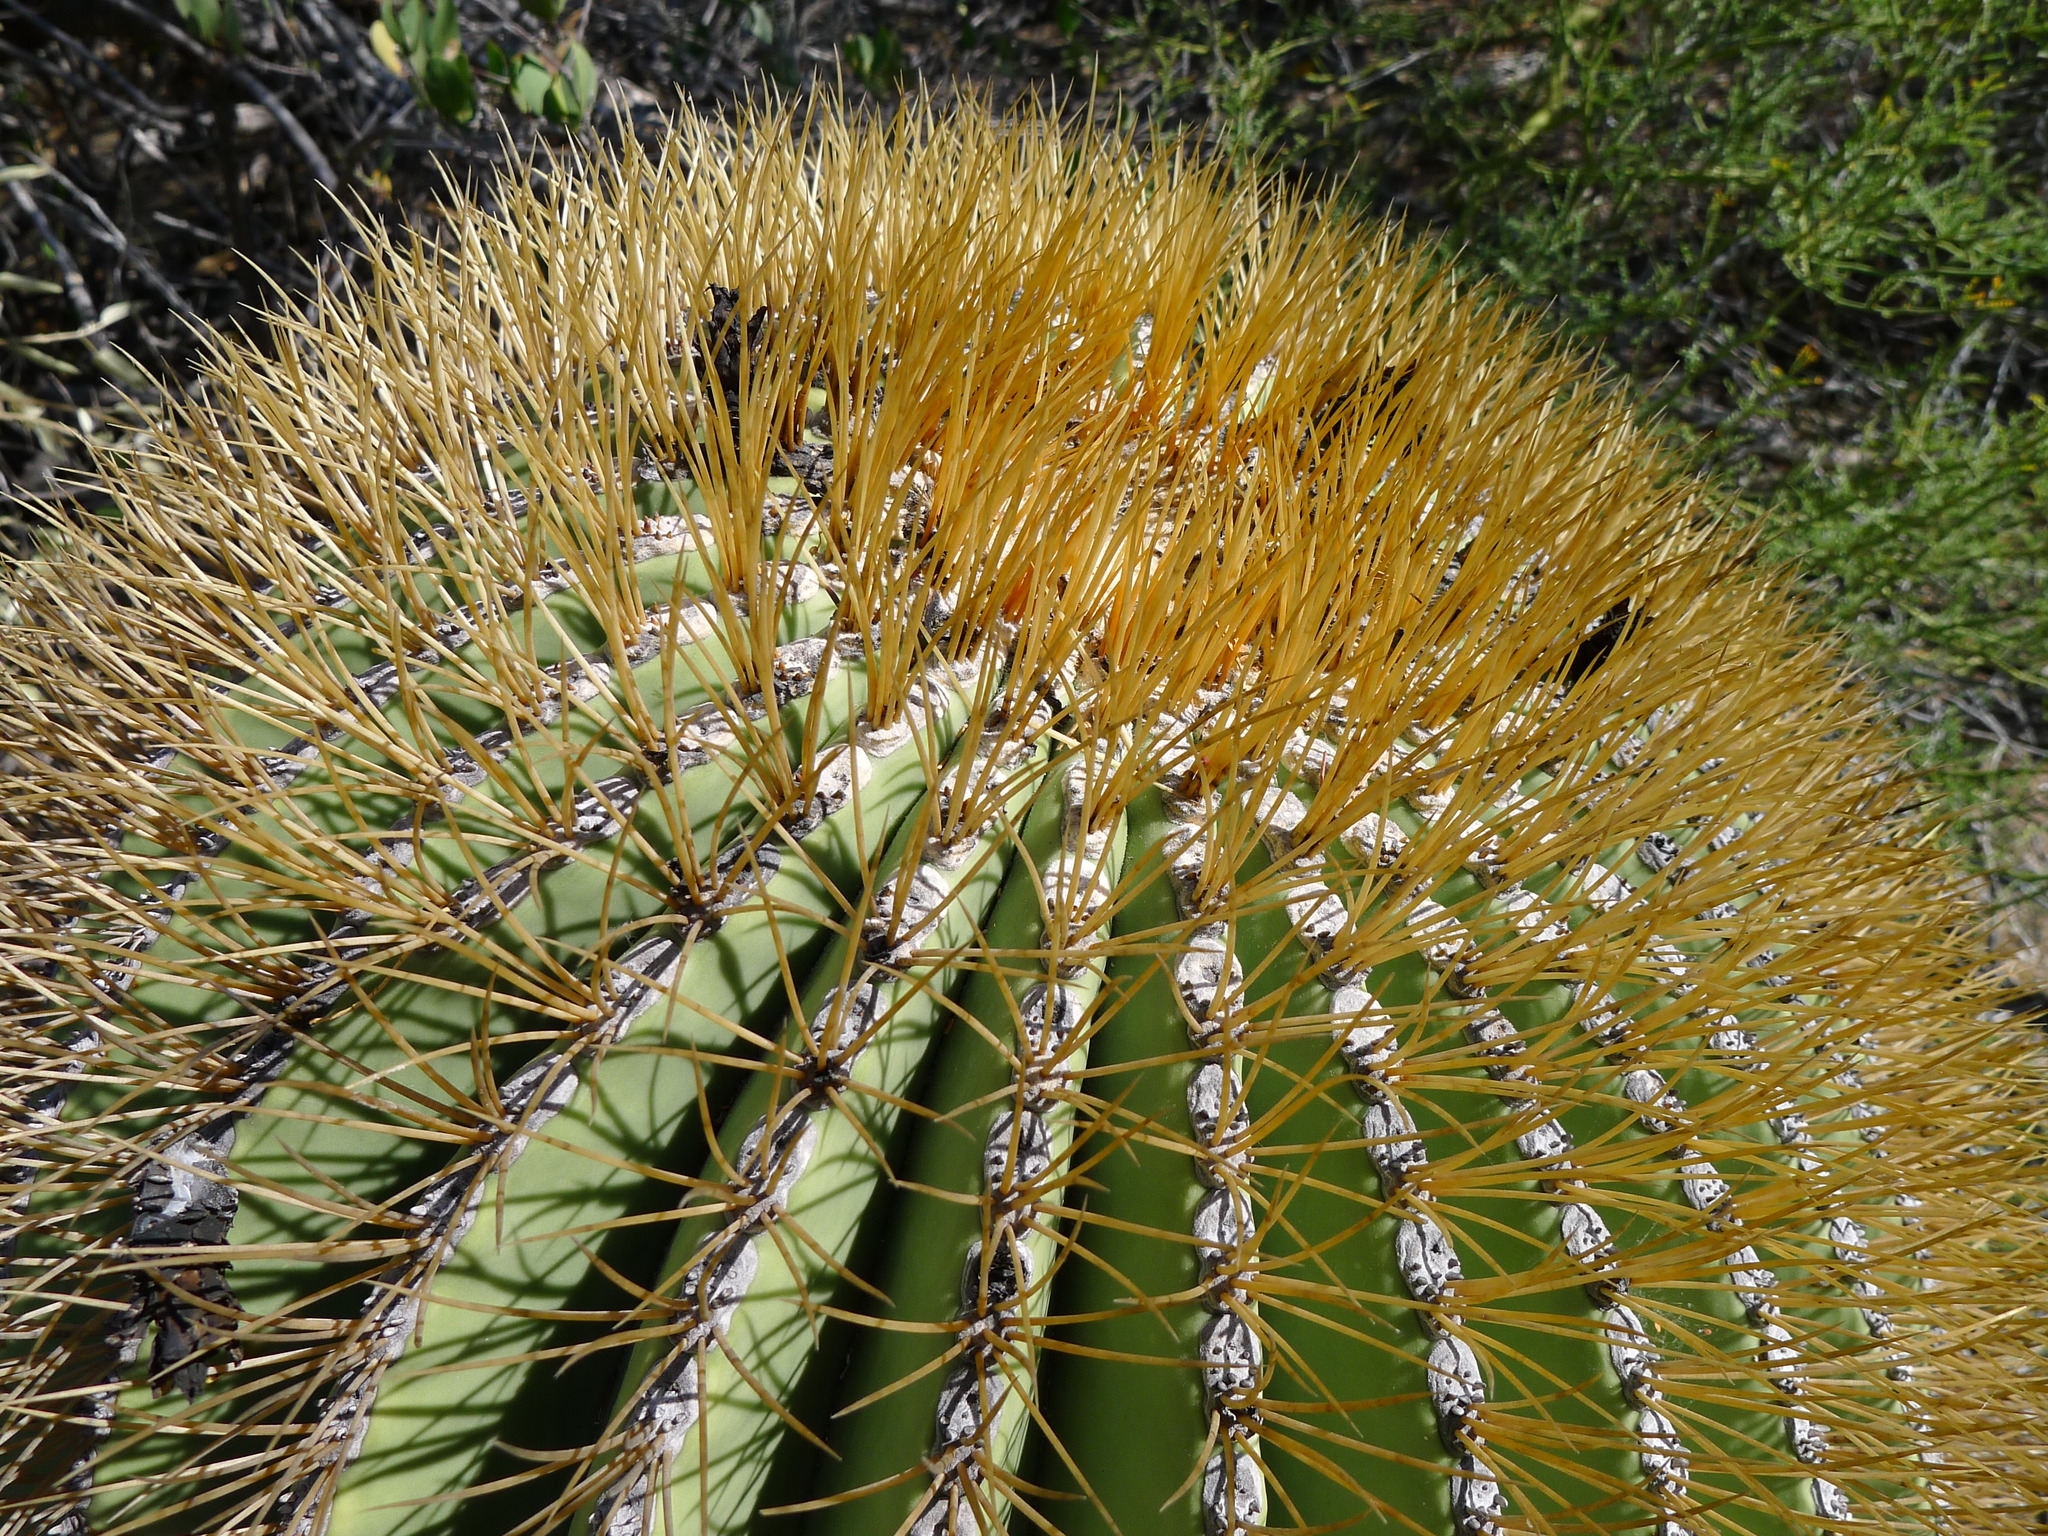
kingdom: Plantae
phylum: Tracheophyta
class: Magnoliopsida
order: Caryophyllales
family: Cactaceae
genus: Ferocactus
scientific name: Ferocactus diguetii
